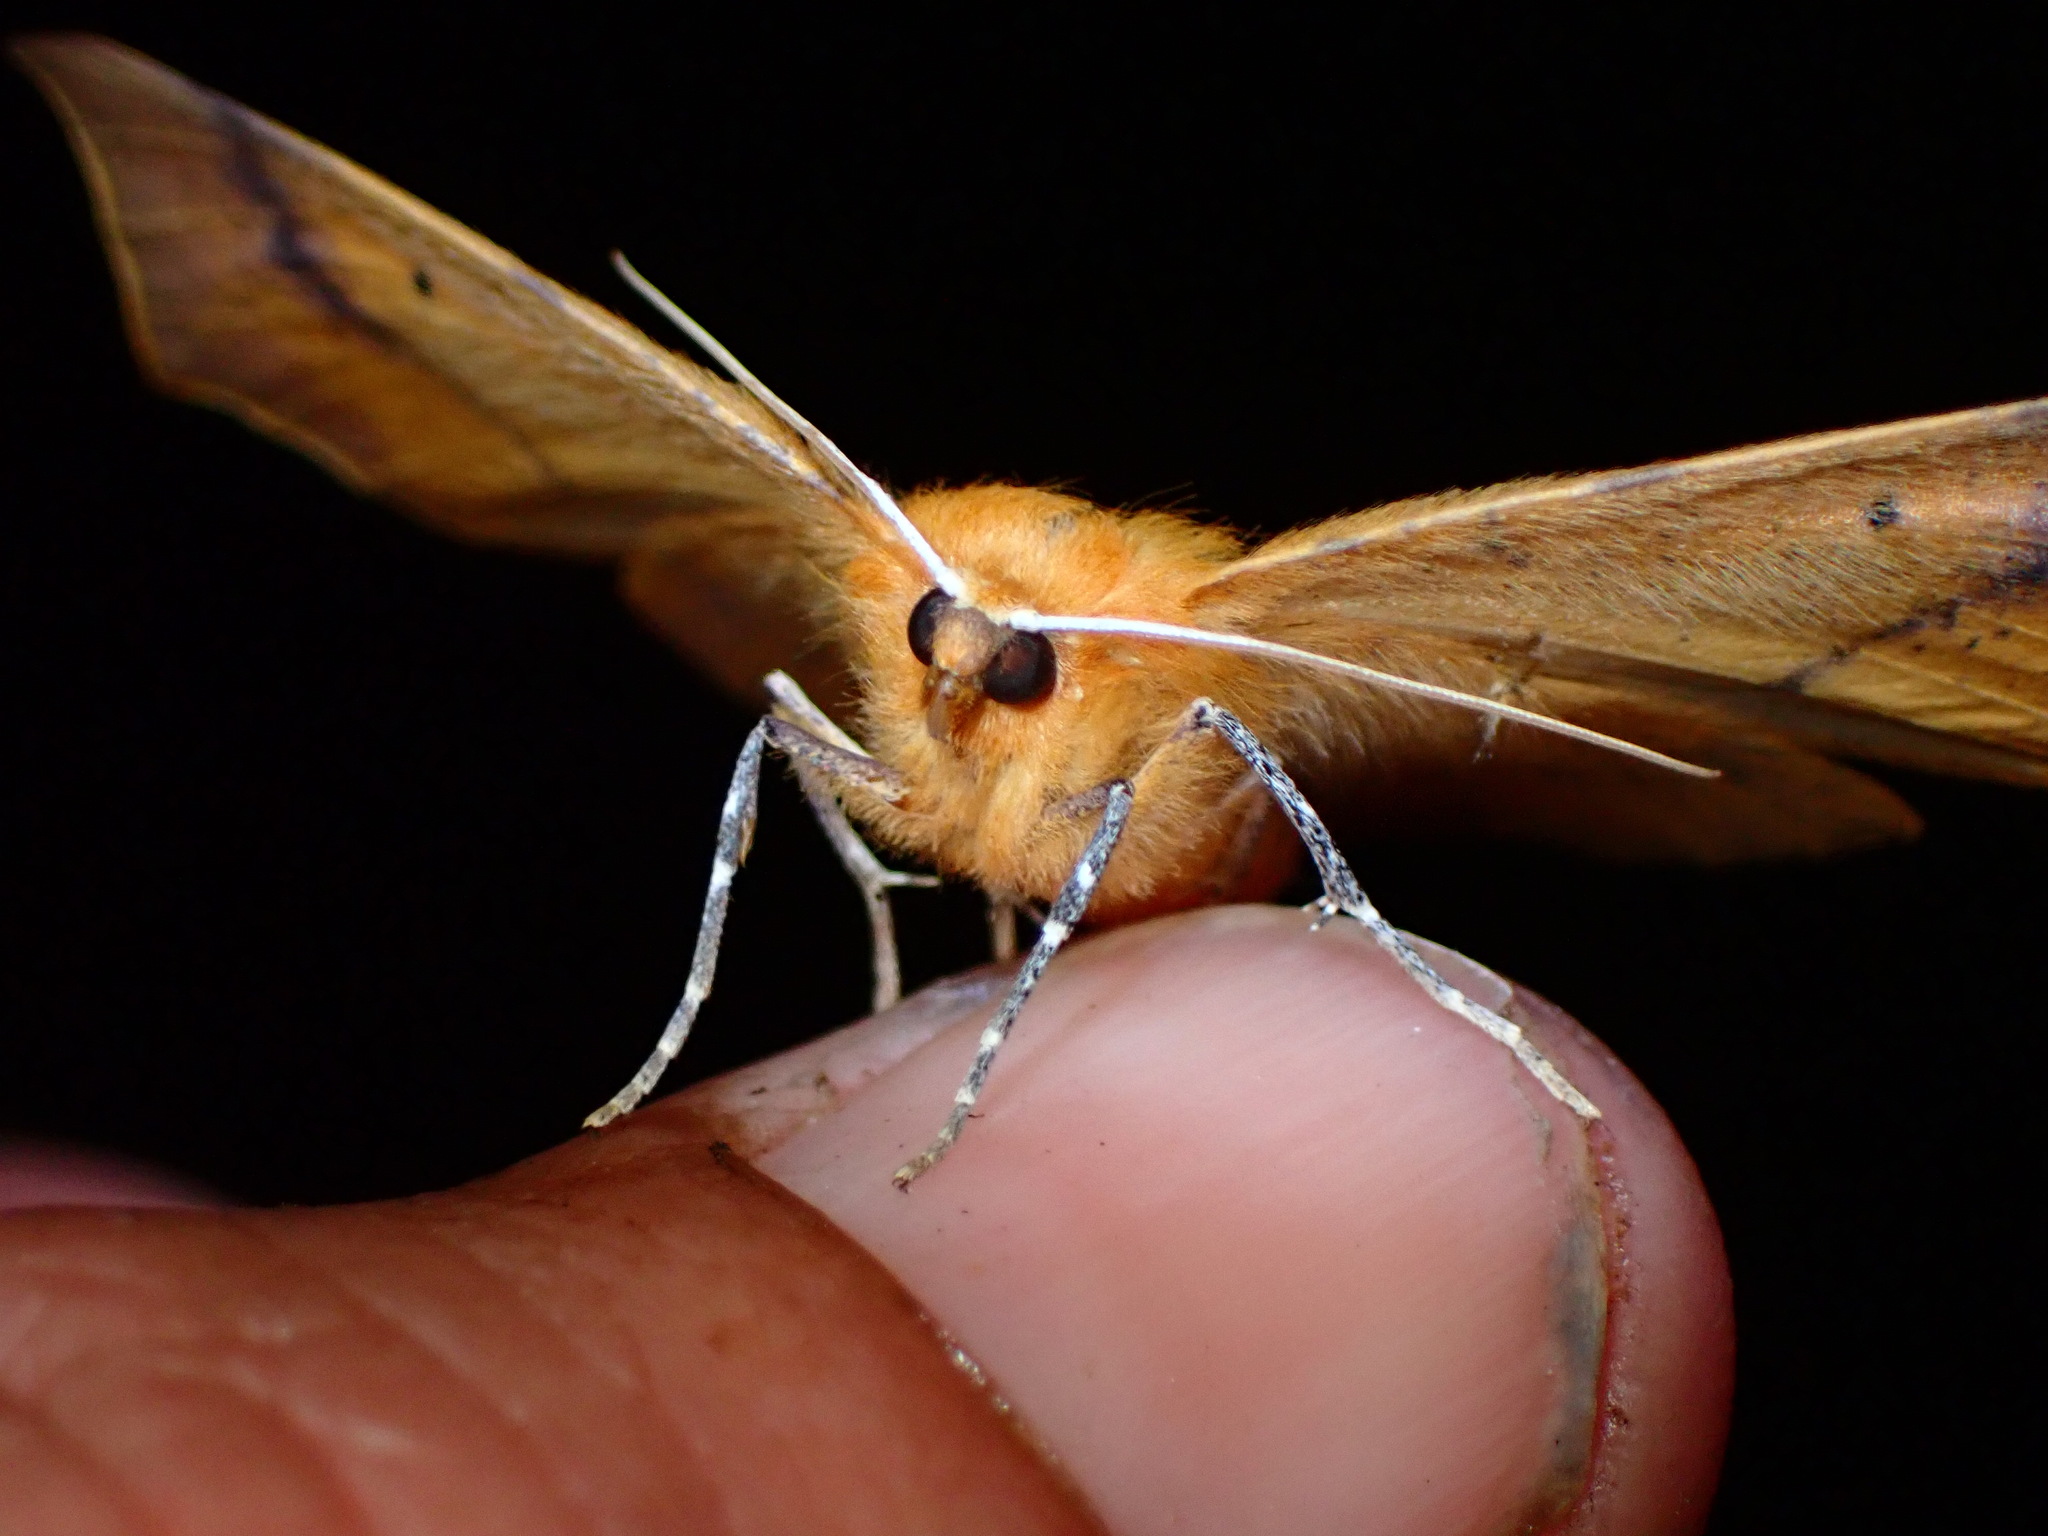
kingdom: Animalia
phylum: Arthropoda
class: Insecta
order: Lepidoptera
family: Geometridae
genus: Tetracis
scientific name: Tetracis cervinaria
